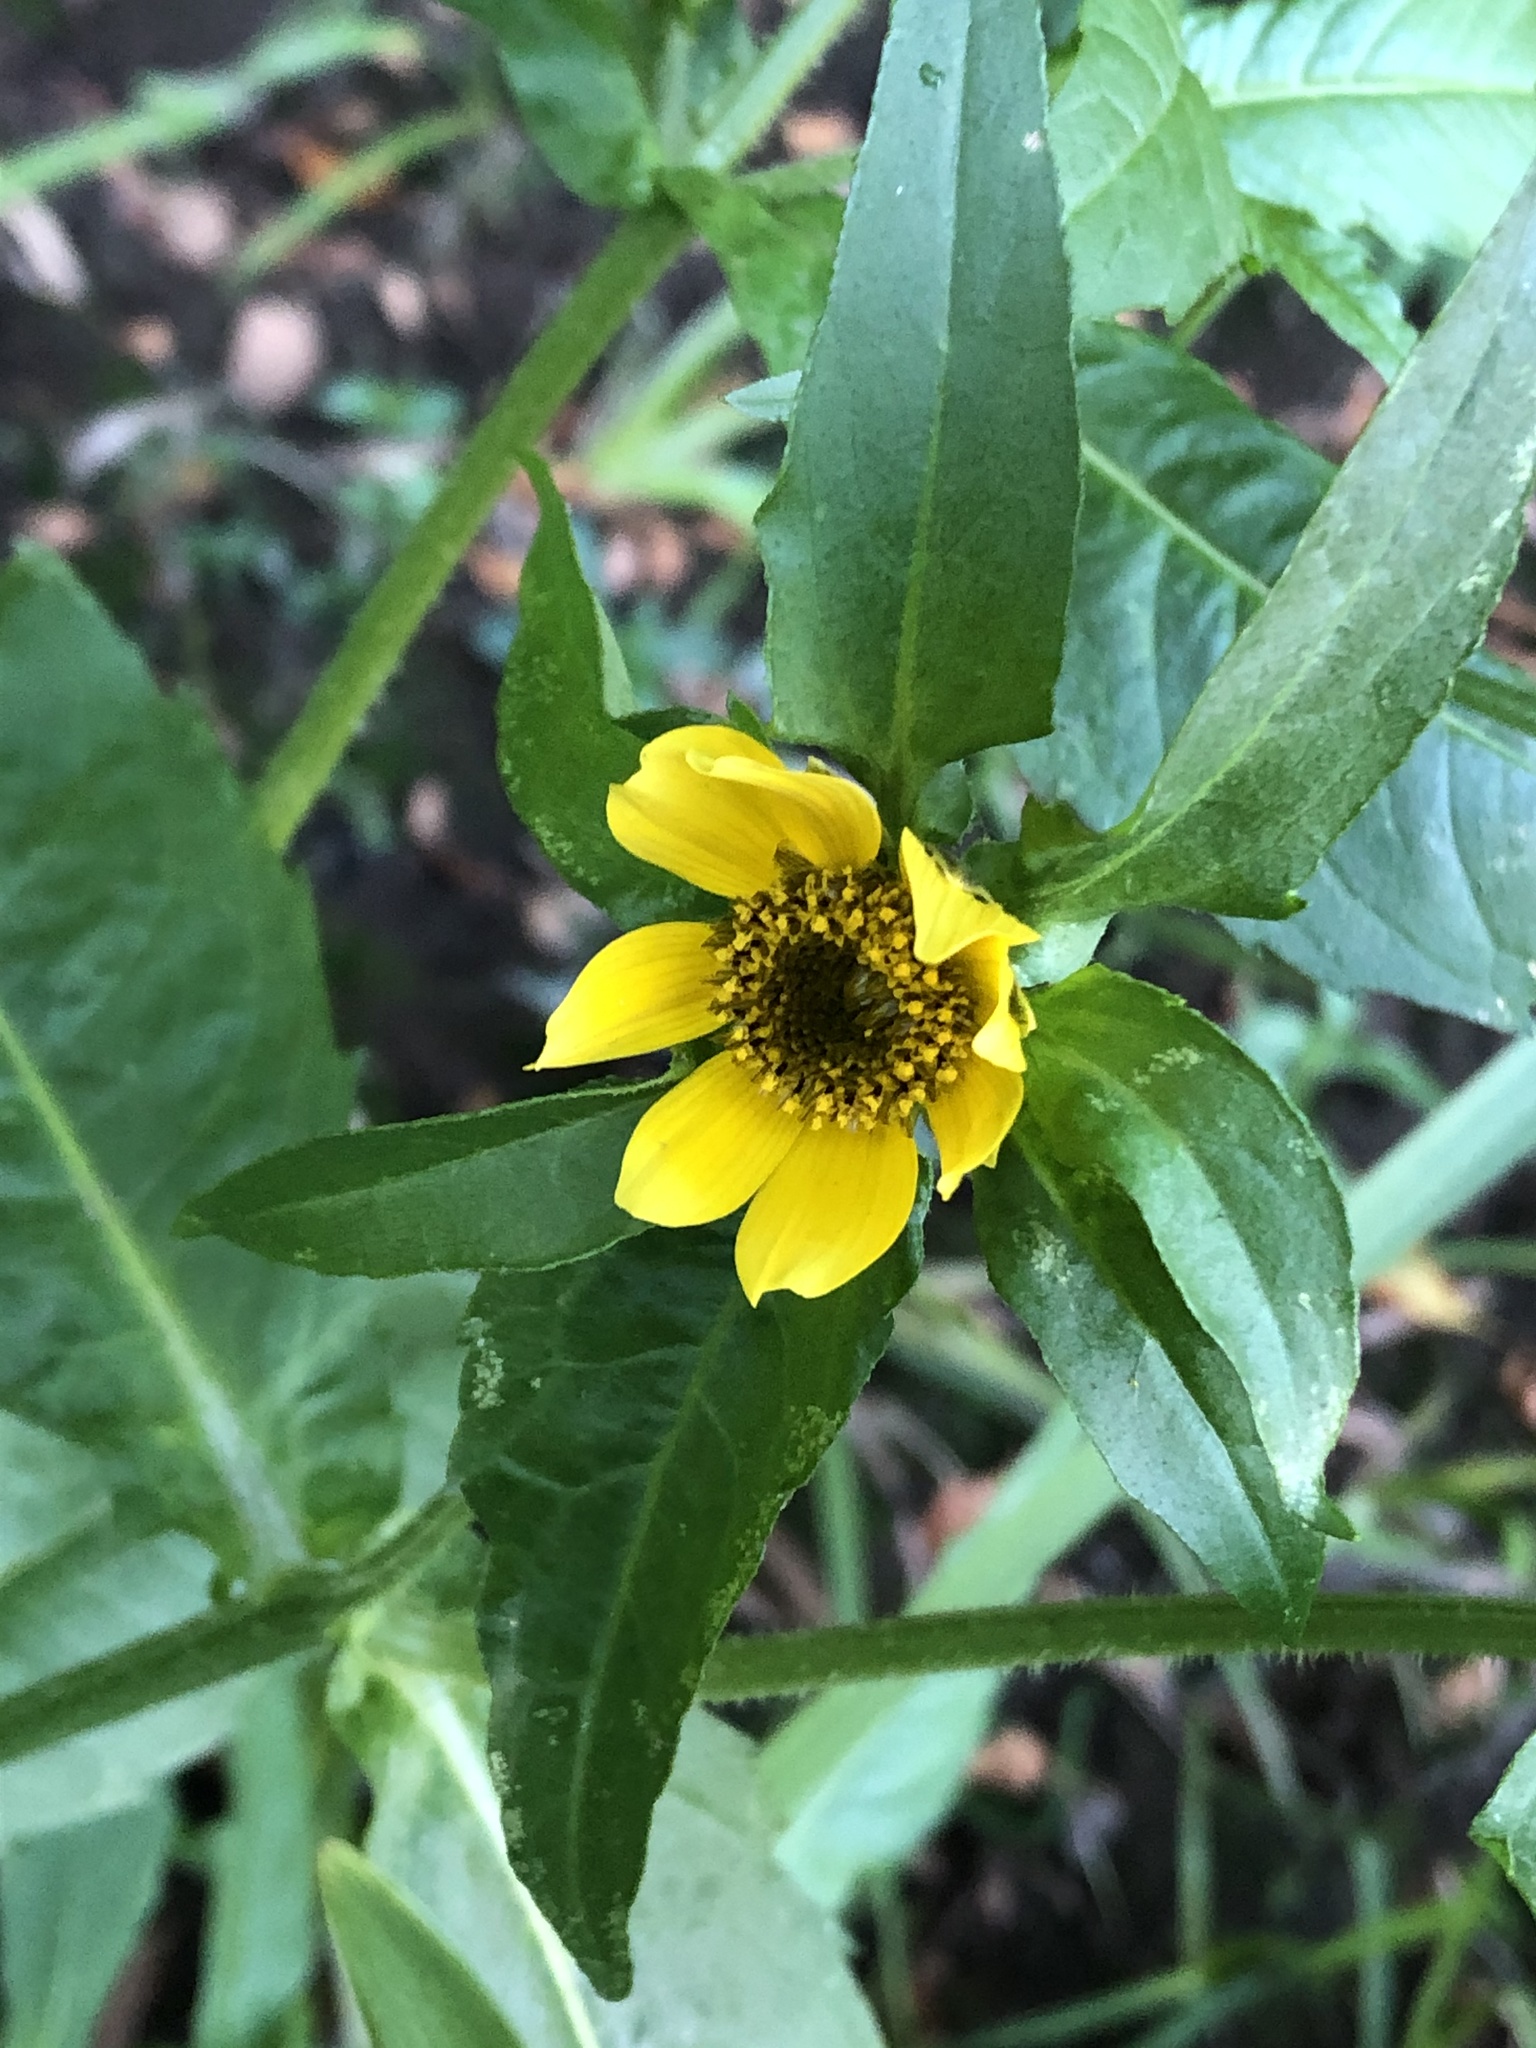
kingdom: Plantae
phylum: Tracheophyta
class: Magnoliopsida
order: Asterales
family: Asteraceae
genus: Bidens
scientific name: Bidens cernua
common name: Nodding bur-marigold
